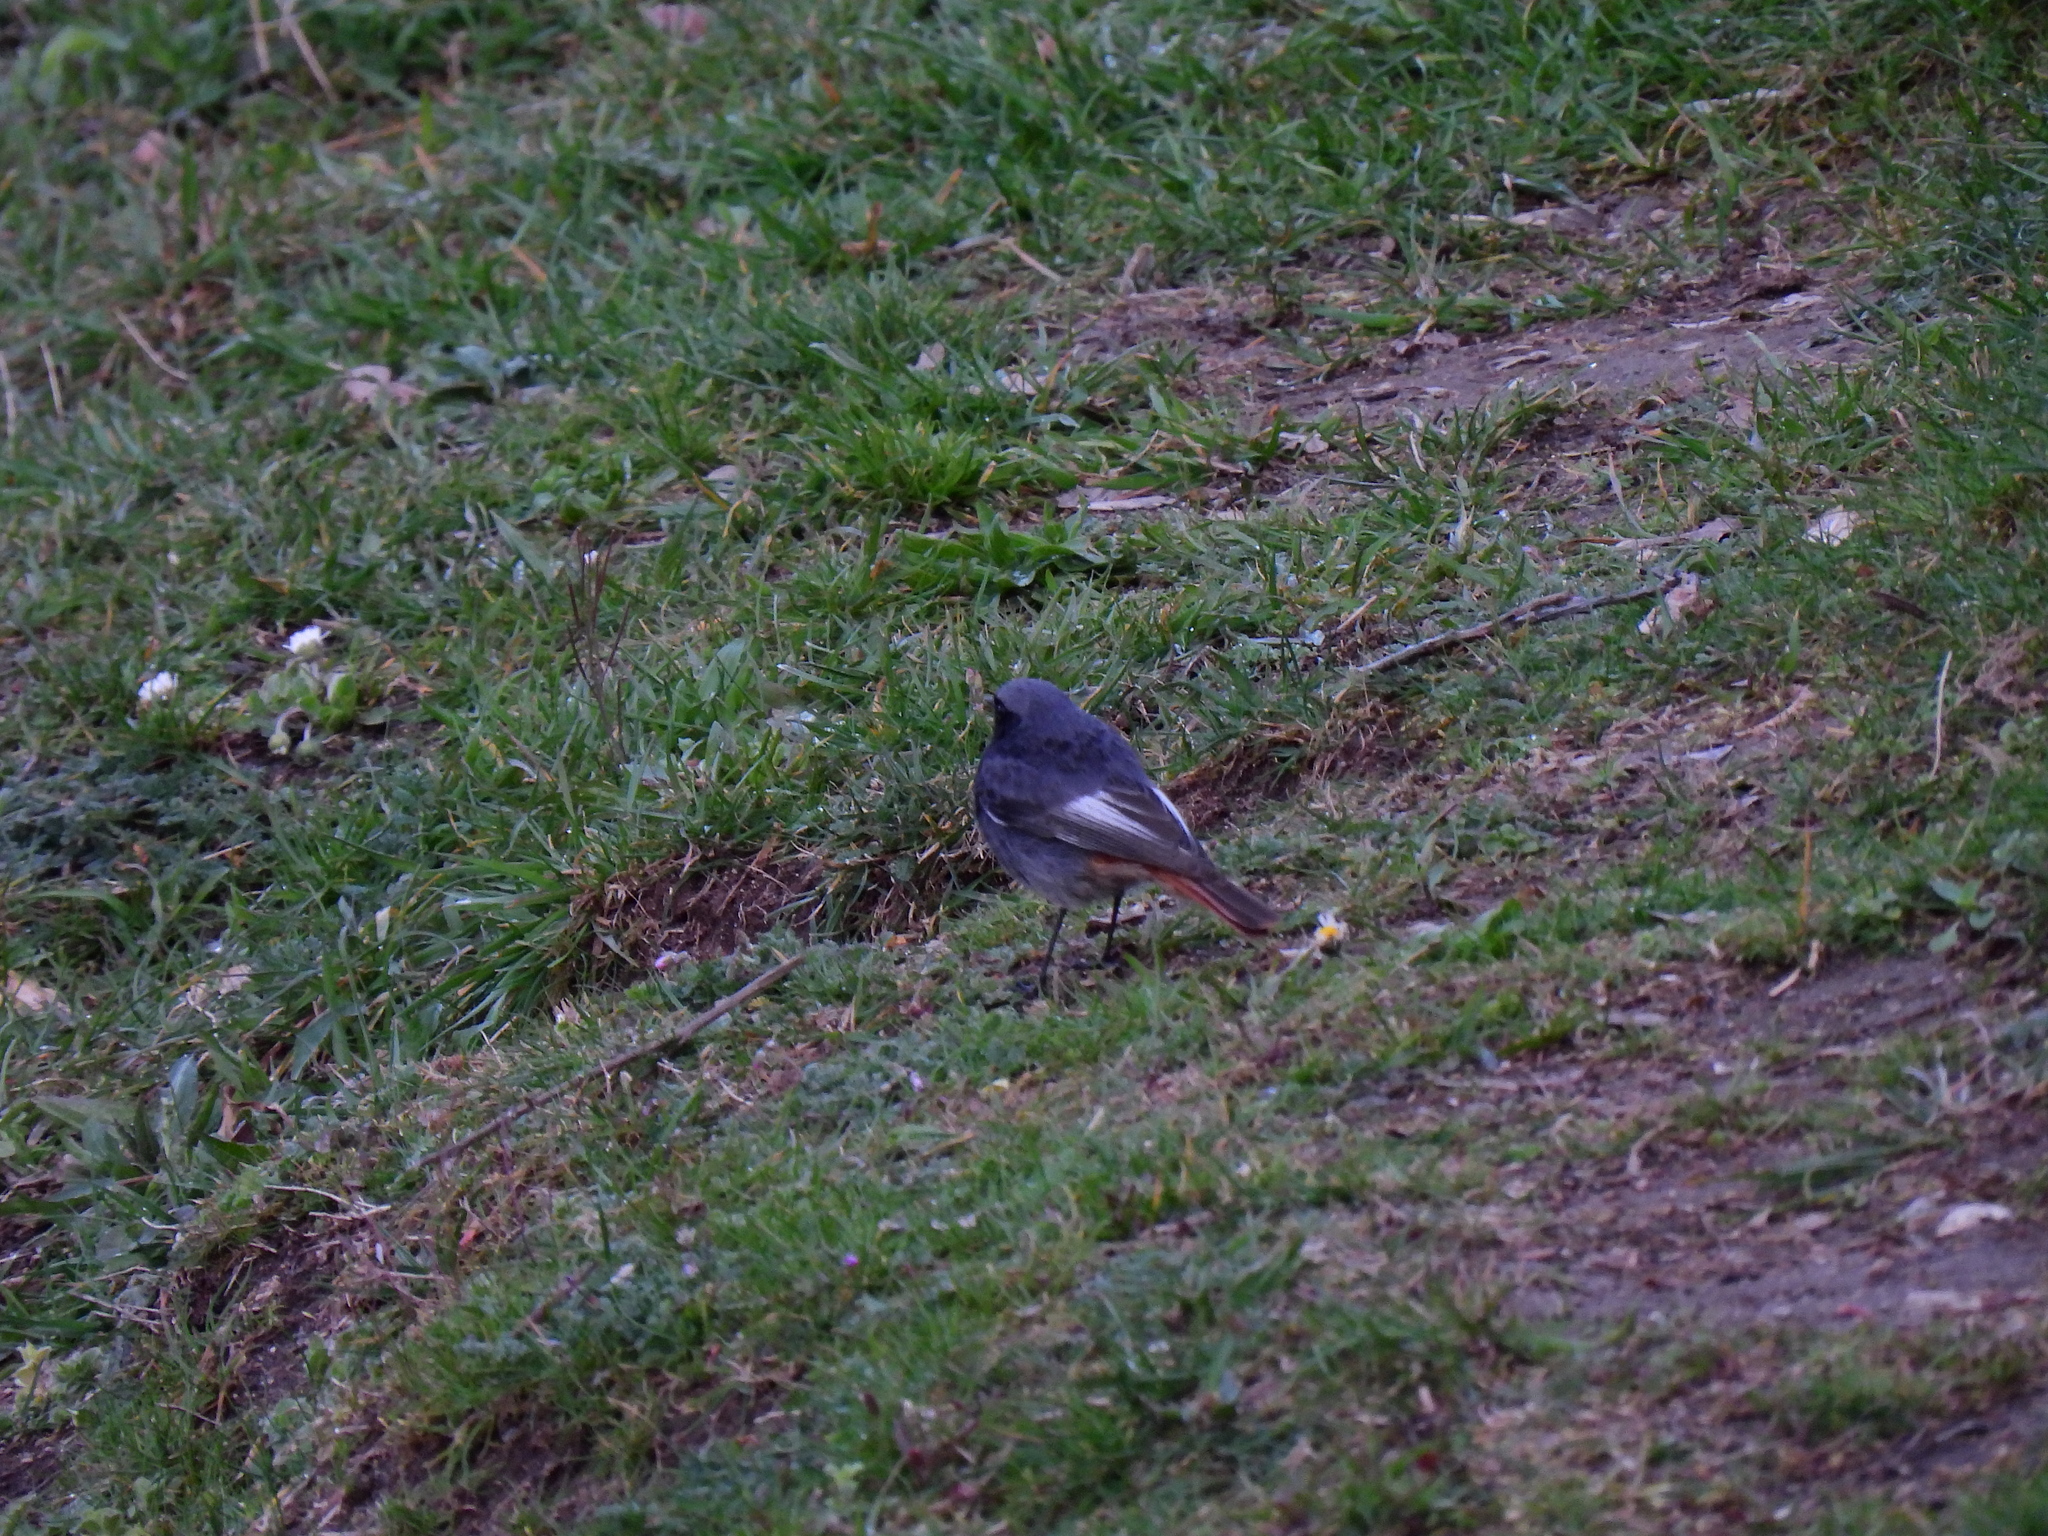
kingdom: Animalia
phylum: Chordata
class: Aves
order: Passeriformes
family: Muscicapidae
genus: Phoenicurus
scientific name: Phoenicurus ochruros
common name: Black redstart
